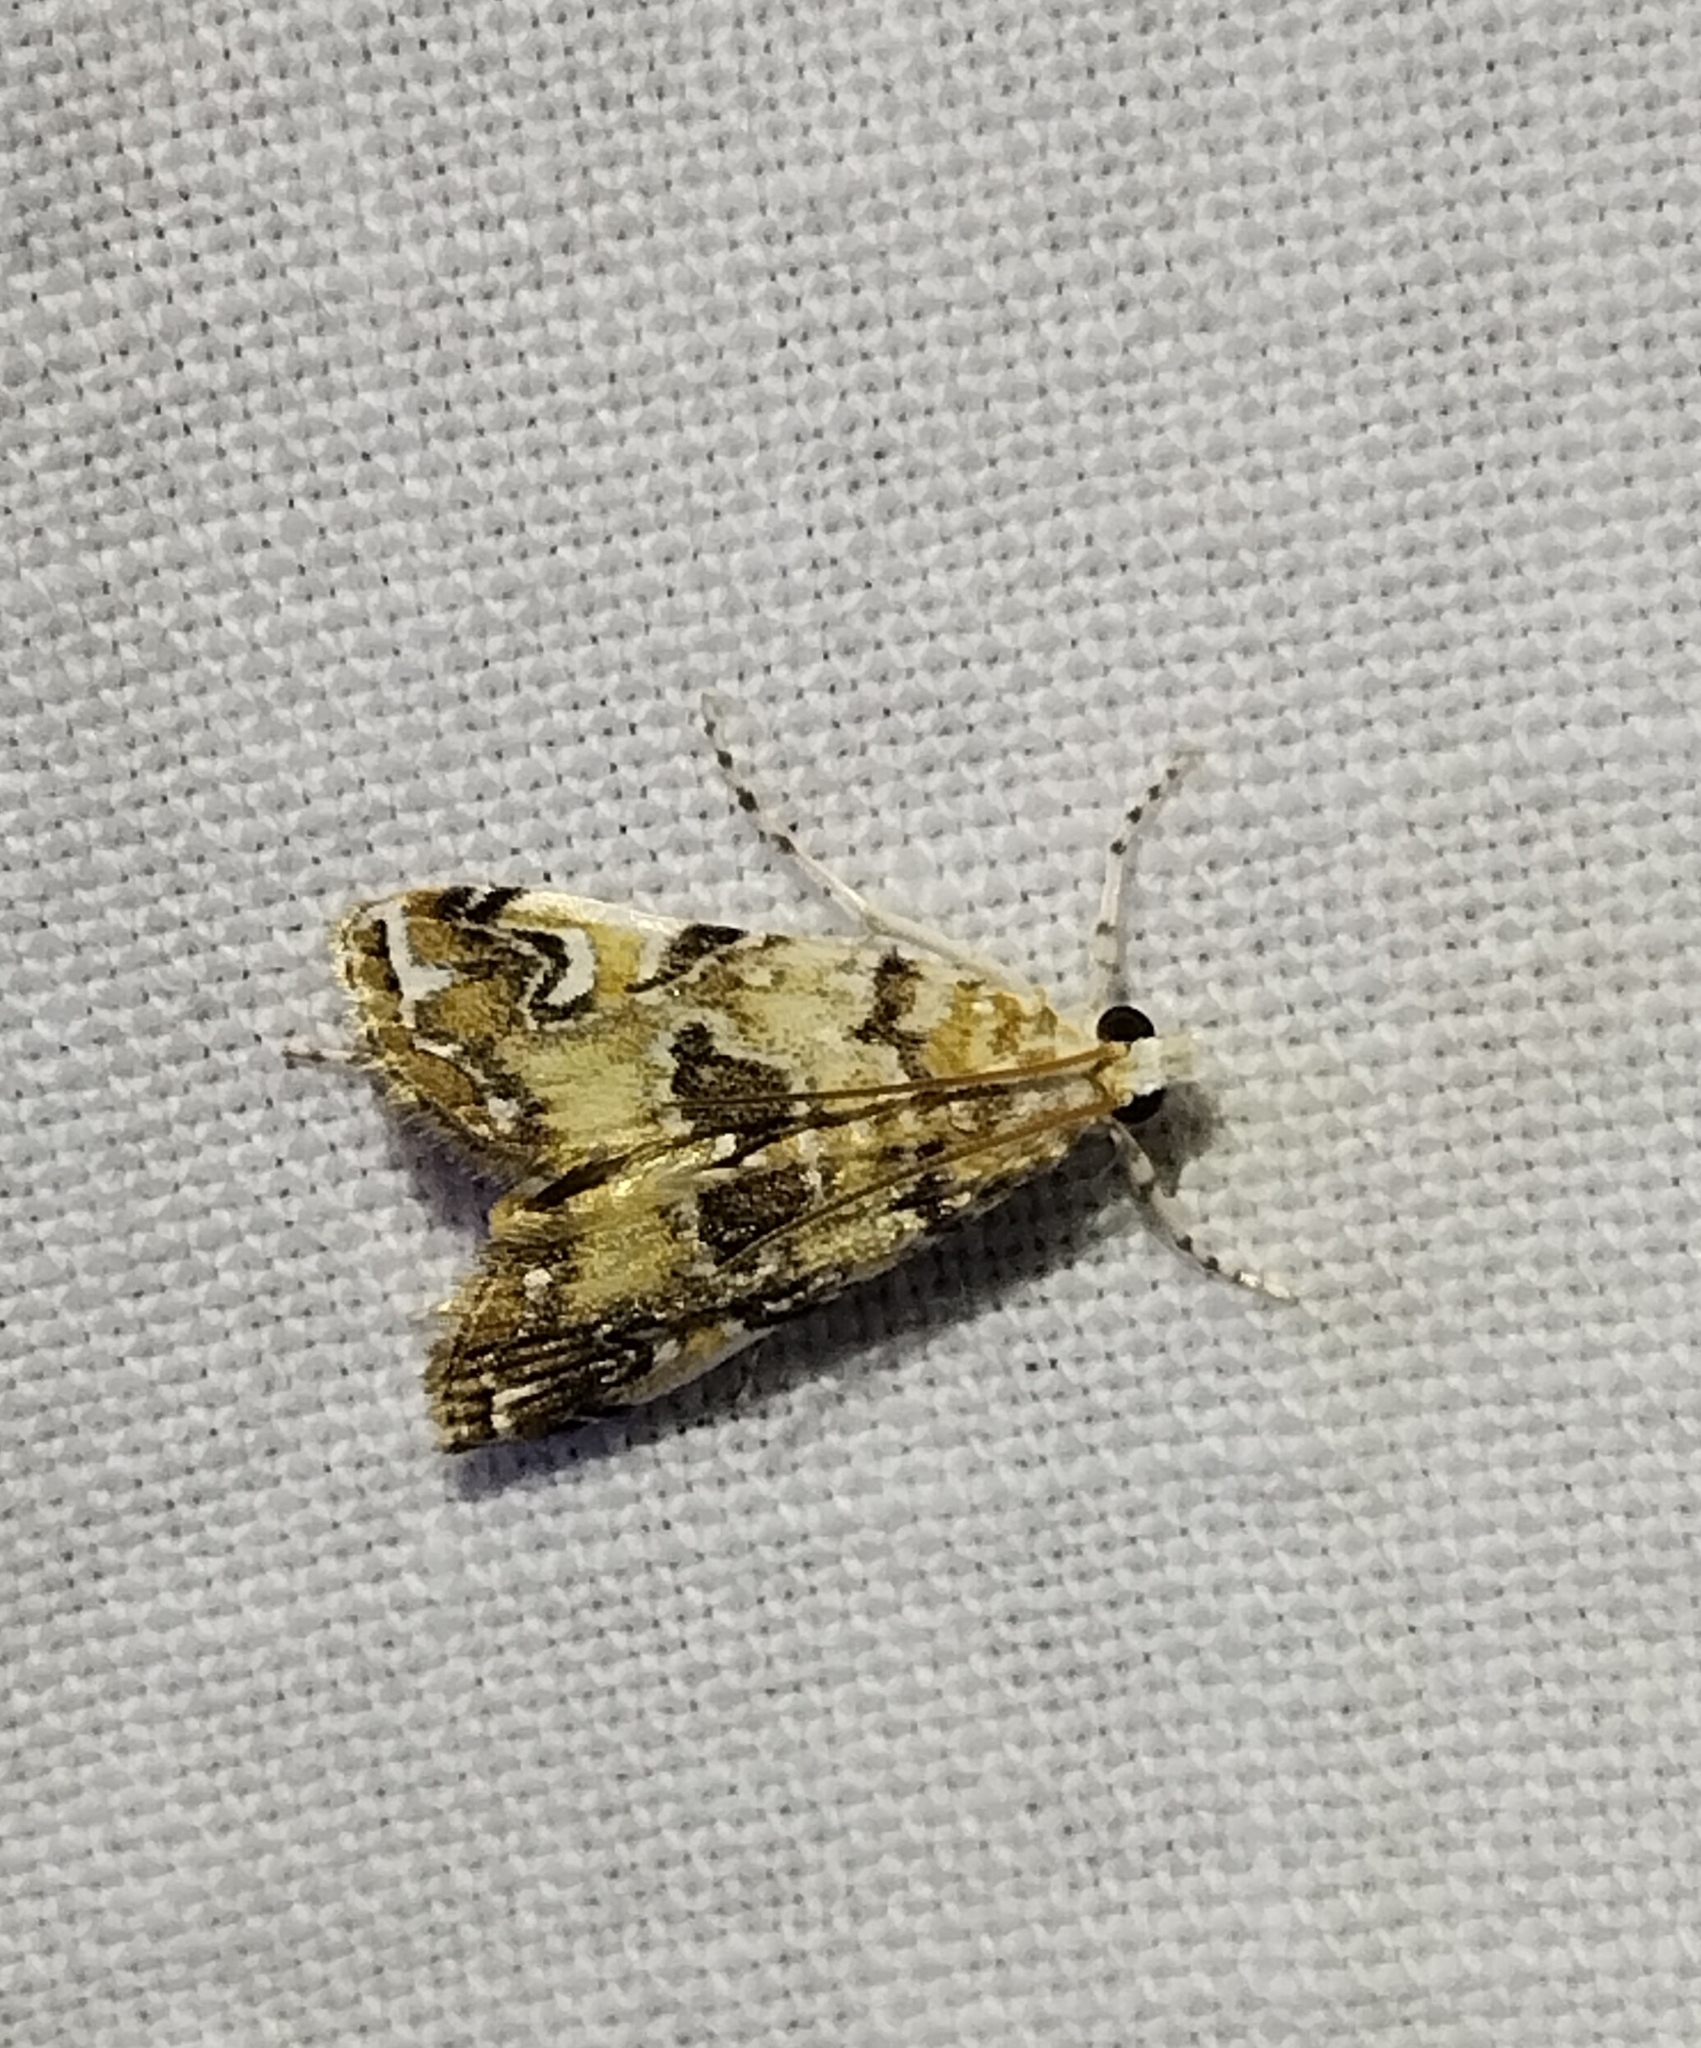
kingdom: Animalia
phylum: Arthropoda
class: Insecta
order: Lepidoptera
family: Crambidae
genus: Elophila
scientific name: Elophila gyralis
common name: Waterlily borer moth
